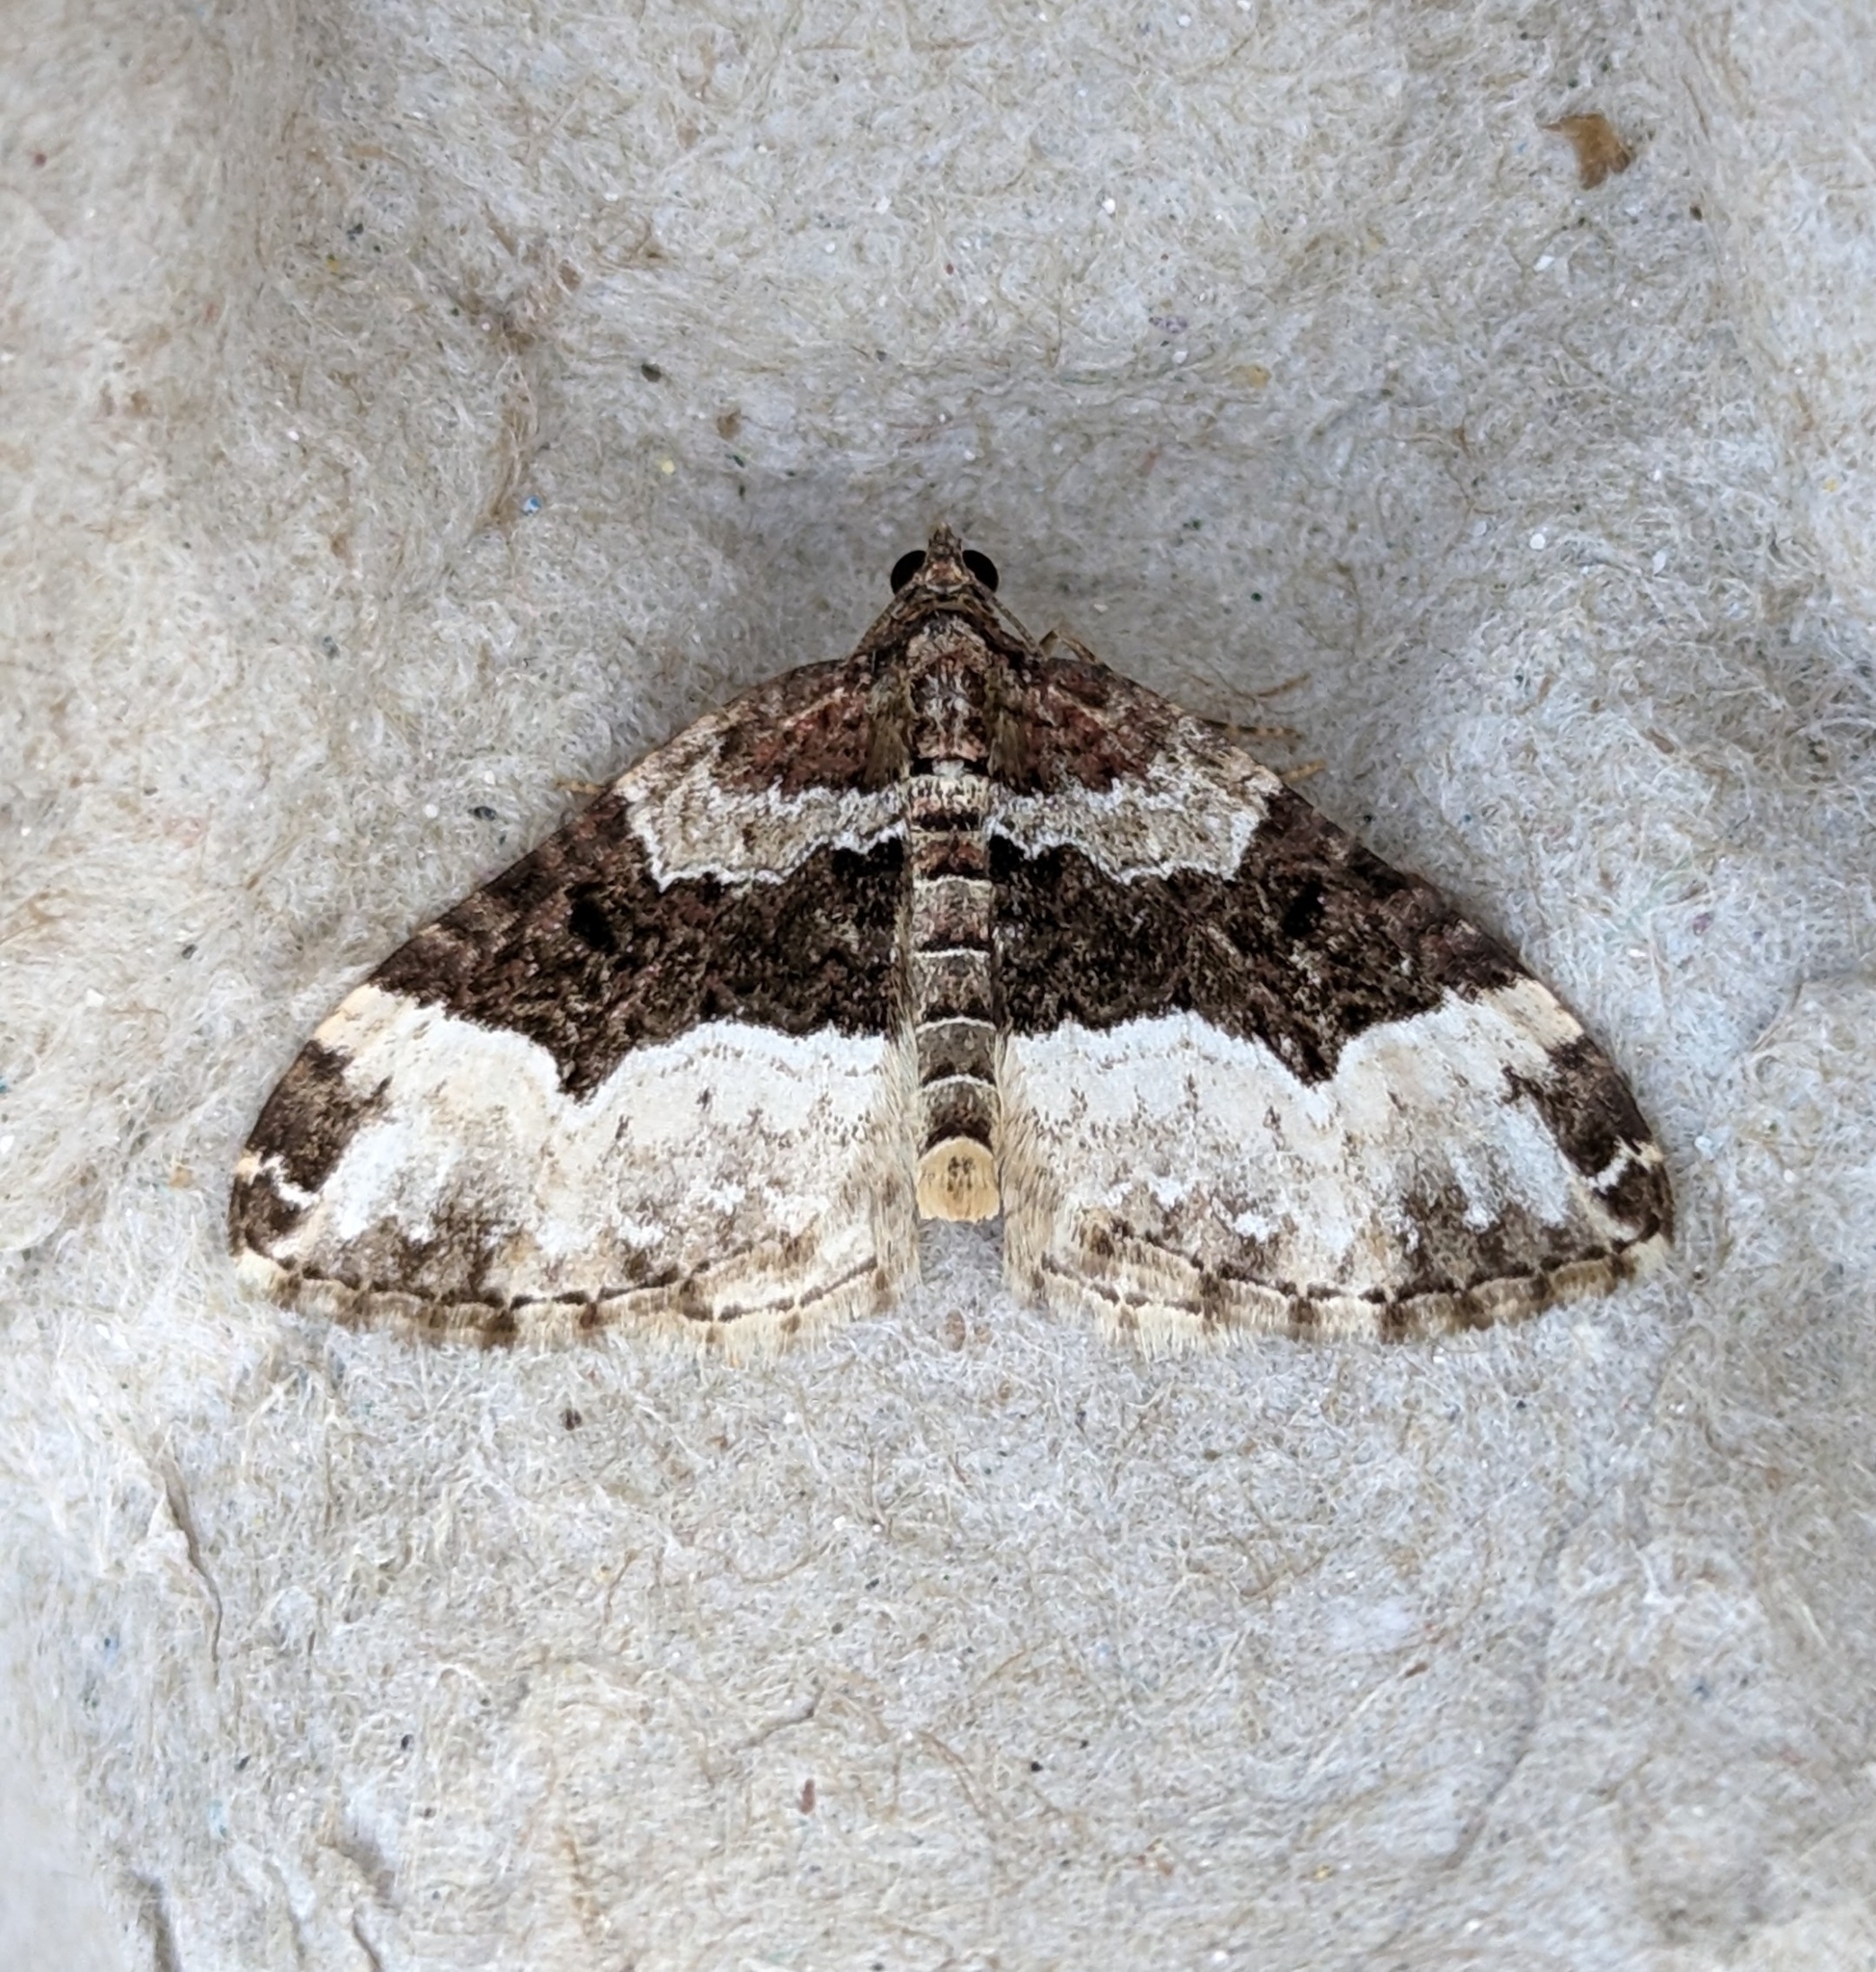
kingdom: Animalia
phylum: Arthropoda
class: Insecta
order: Lepidoptera
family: Geometridae
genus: Euphyia
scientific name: Euphyia intermediata
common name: Sharp-angled carpet
